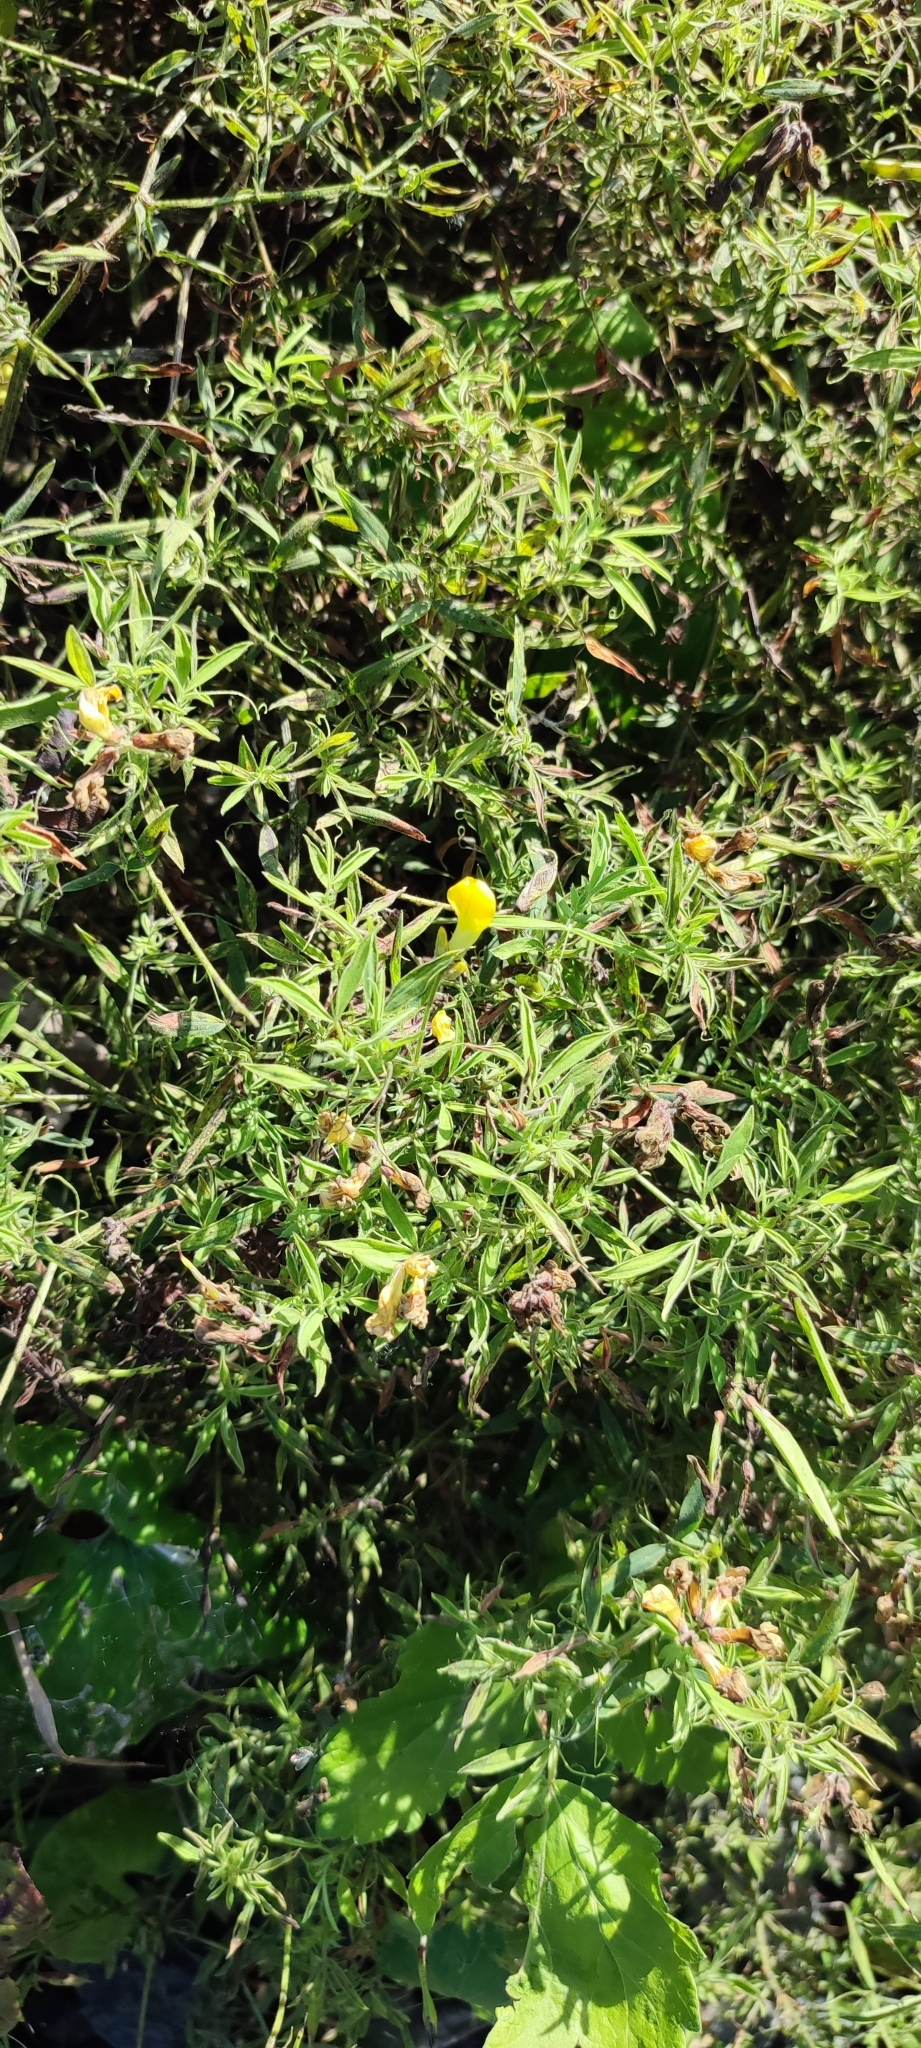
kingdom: Plantae
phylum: Tracheophyta
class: Magnoliopsida
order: Fabales
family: Fabaceae
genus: Lathyrus
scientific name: Lathyrus pratensis
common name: Meadow vetchling
